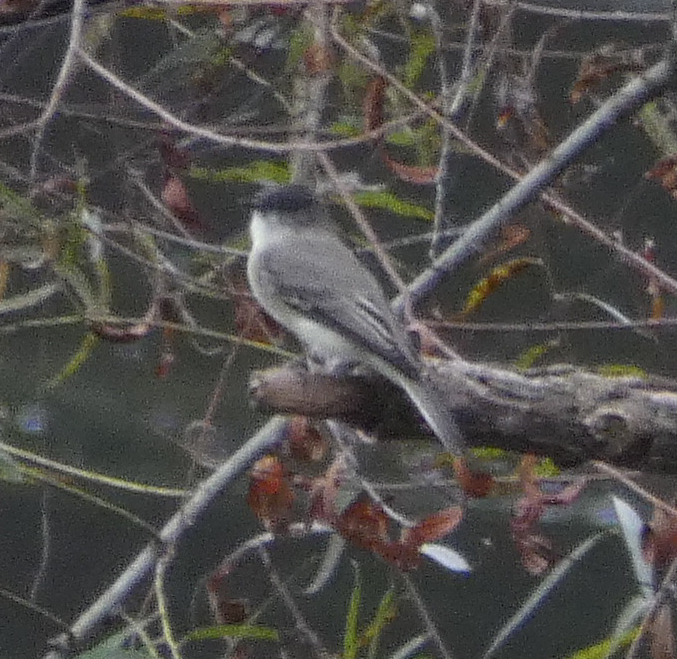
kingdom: Animalia
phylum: Chordata
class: Aves
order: Passeriformes
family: Tyrannidae
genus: Sayornis
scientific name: Sayornis phoebe
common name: Eastern phoebe
